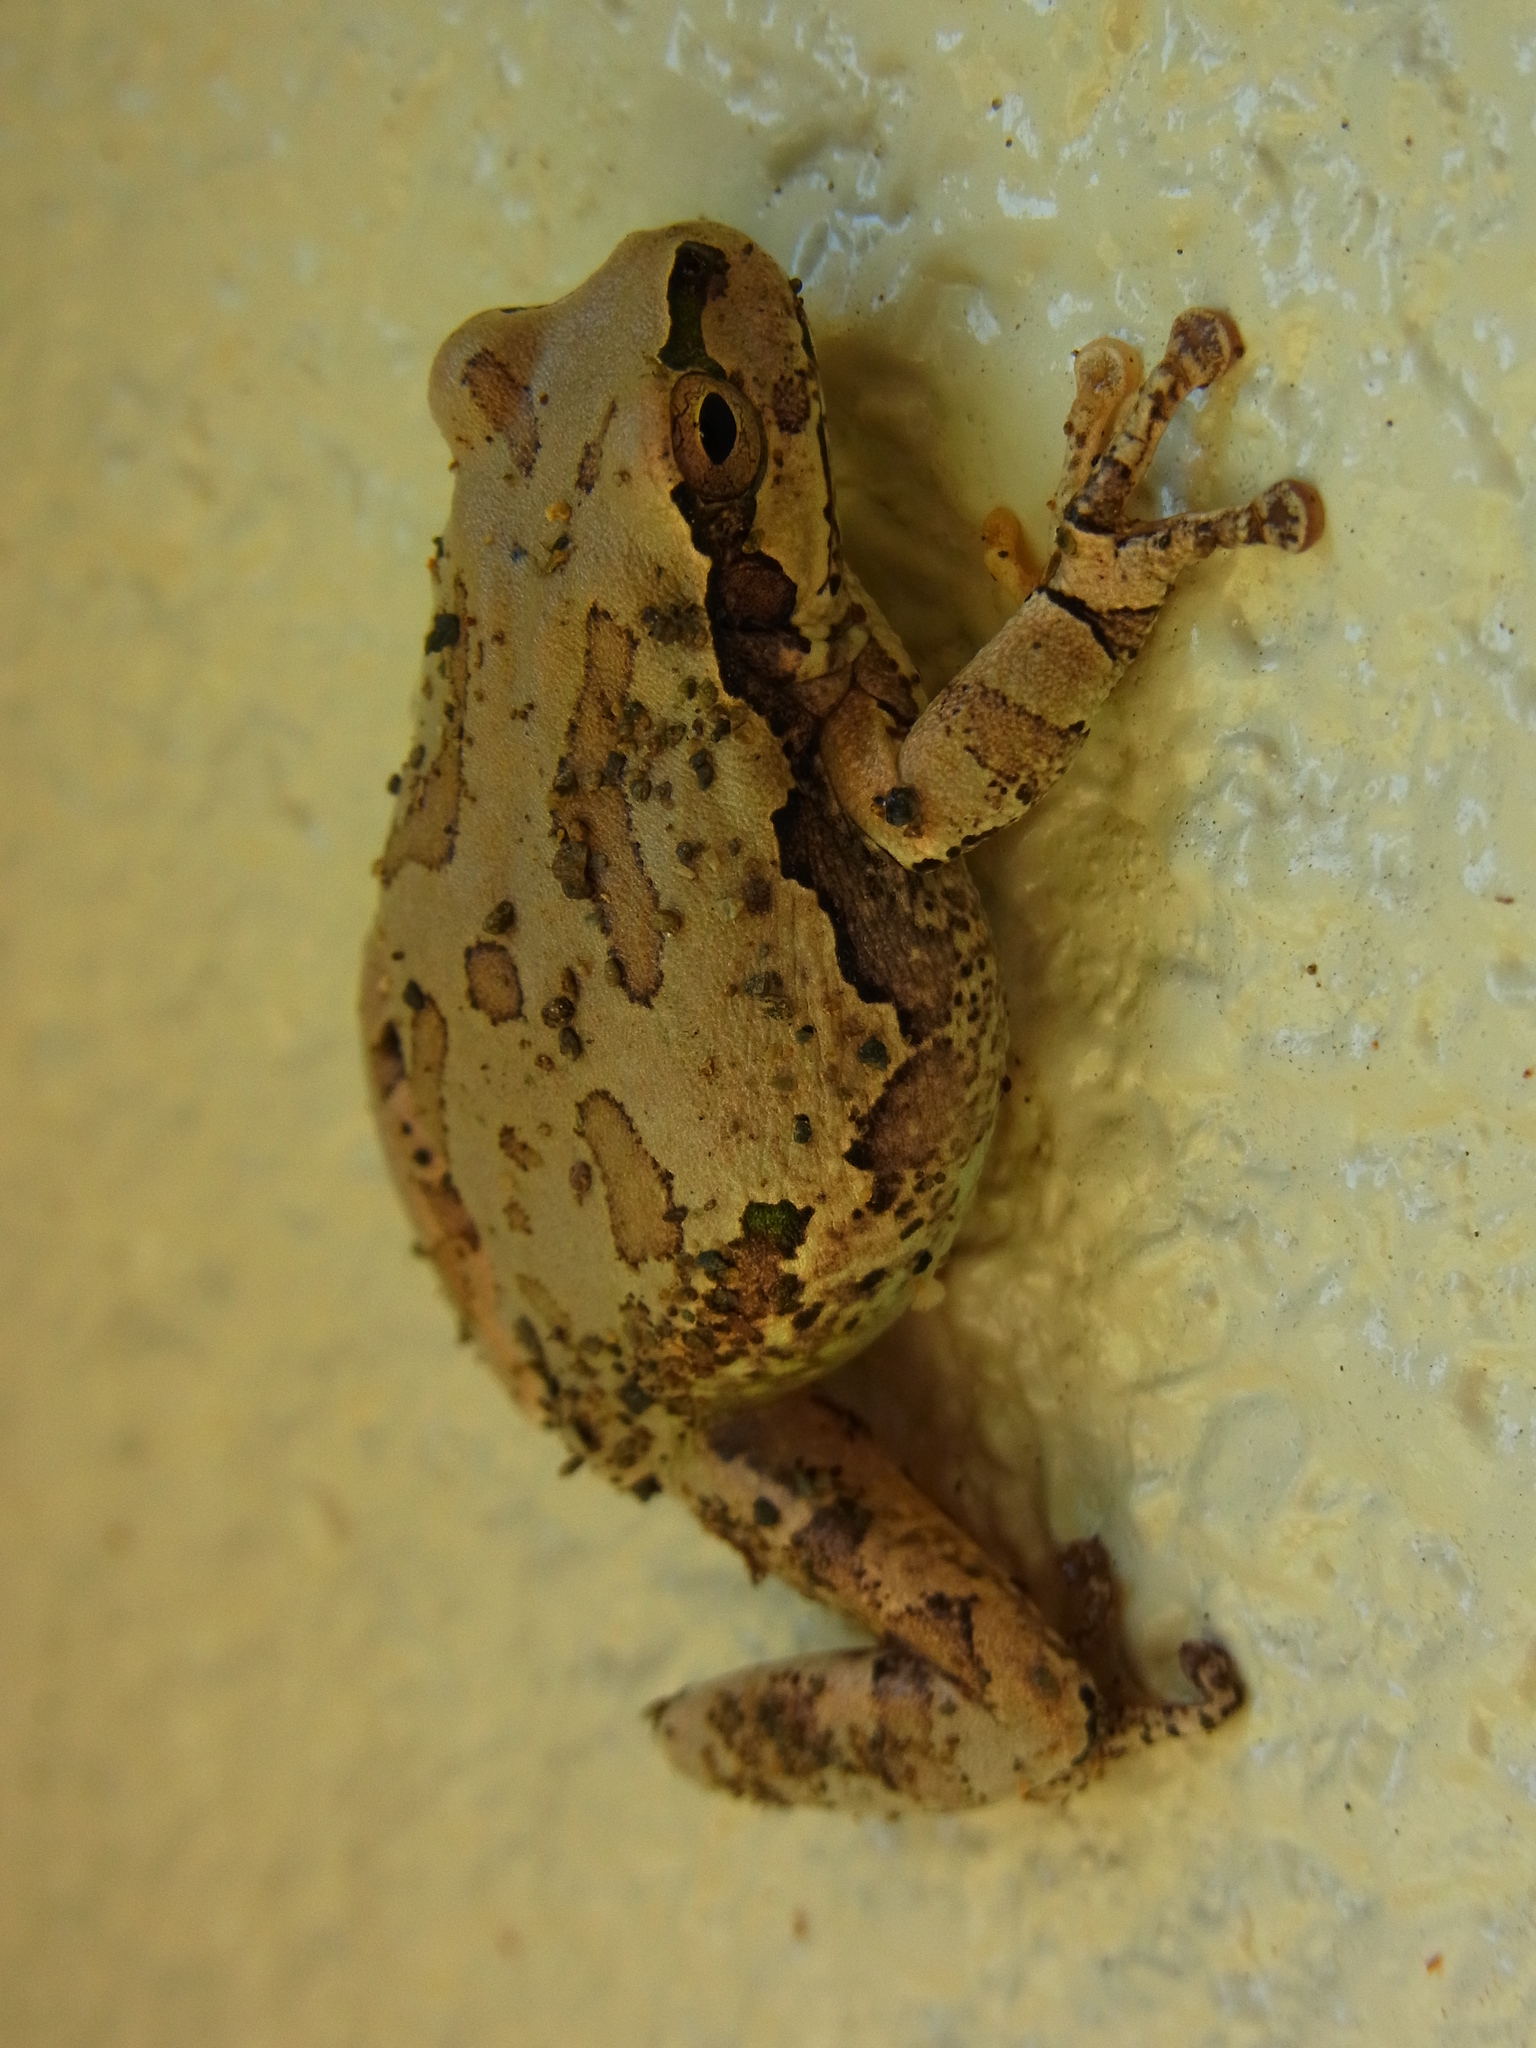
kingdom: Animalia
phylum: Chordata
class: Amphibia
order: Anura
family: Hylidae
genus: Dryophytes
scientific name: Dryophytes japonicus
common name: Japanese treefrog
